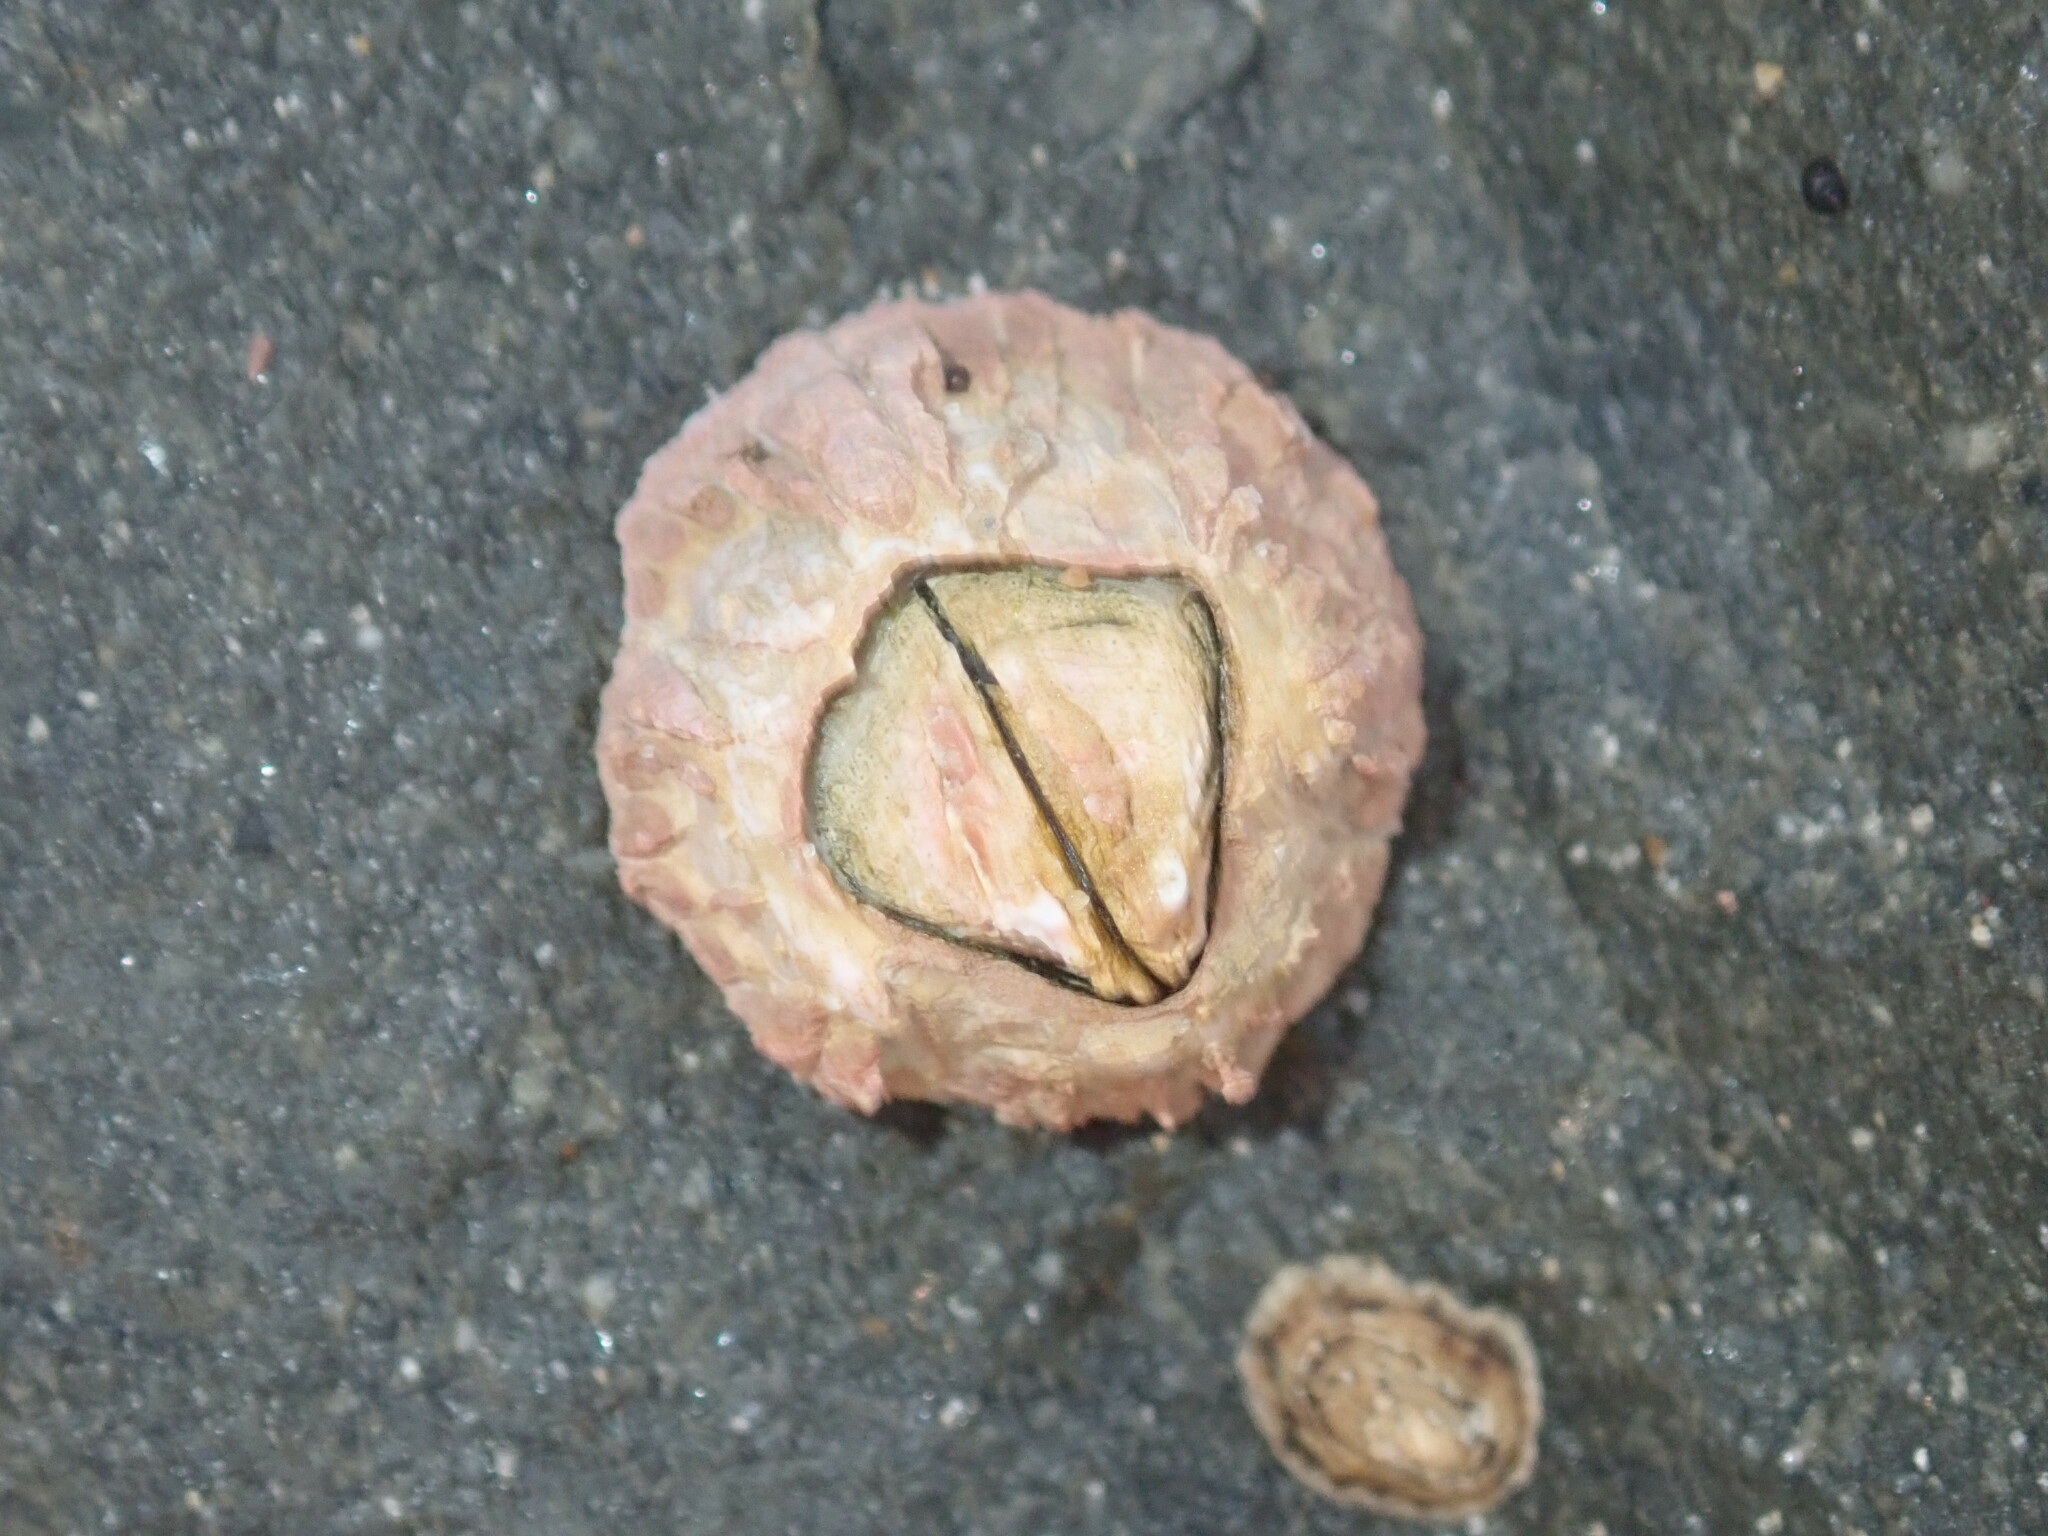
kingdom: Animalia
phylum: Arthropoda
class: Maxillopoda
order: Sessilia
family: Tetraclitidae
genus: Tesseropora
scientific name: Tesseropora rosea
